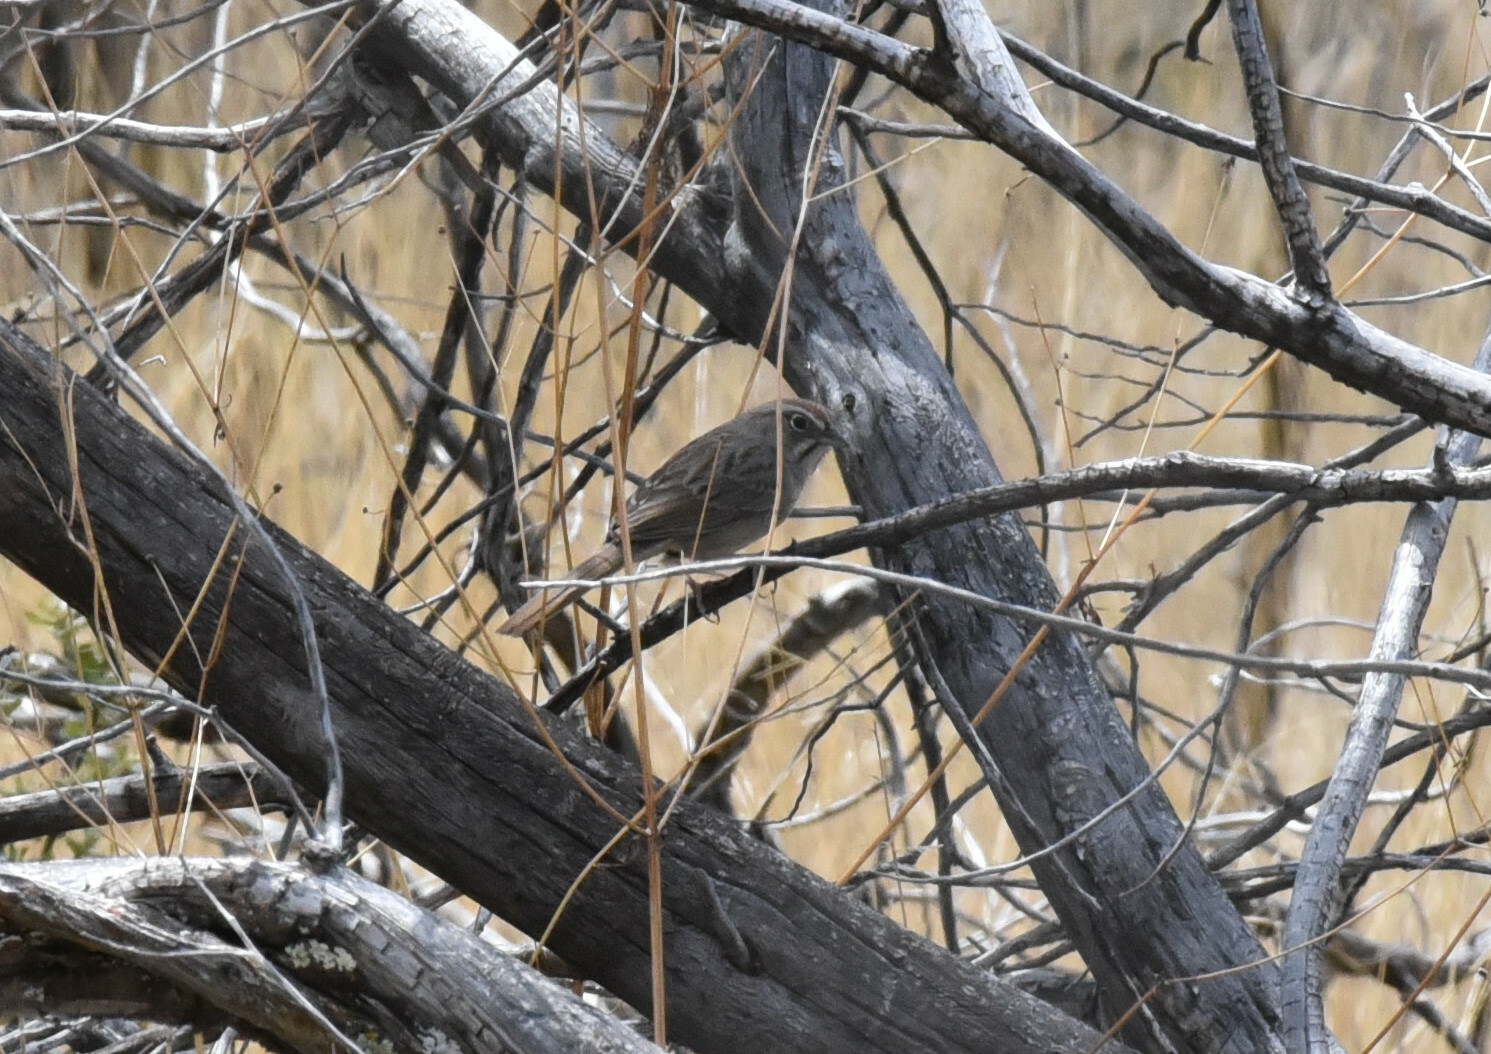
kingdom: Animalia
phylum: Chordata
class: Aves
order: Passeriformes
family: Passerellidae
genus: Aimophila
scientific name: Aimophila ruficeps
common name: Rufous-crowned sparrow
